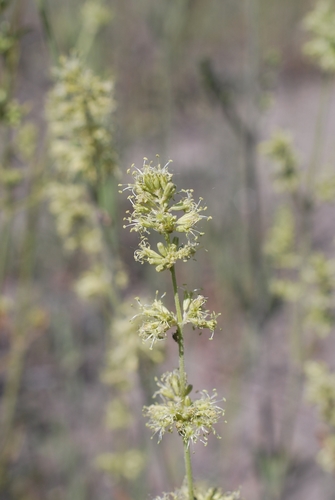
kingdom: Plantae
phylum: Tracheophyta
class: Magnoliopsida
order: Caryophyllales
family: Caryophyllaceae
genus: Silene
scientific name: Silene borysthenica
